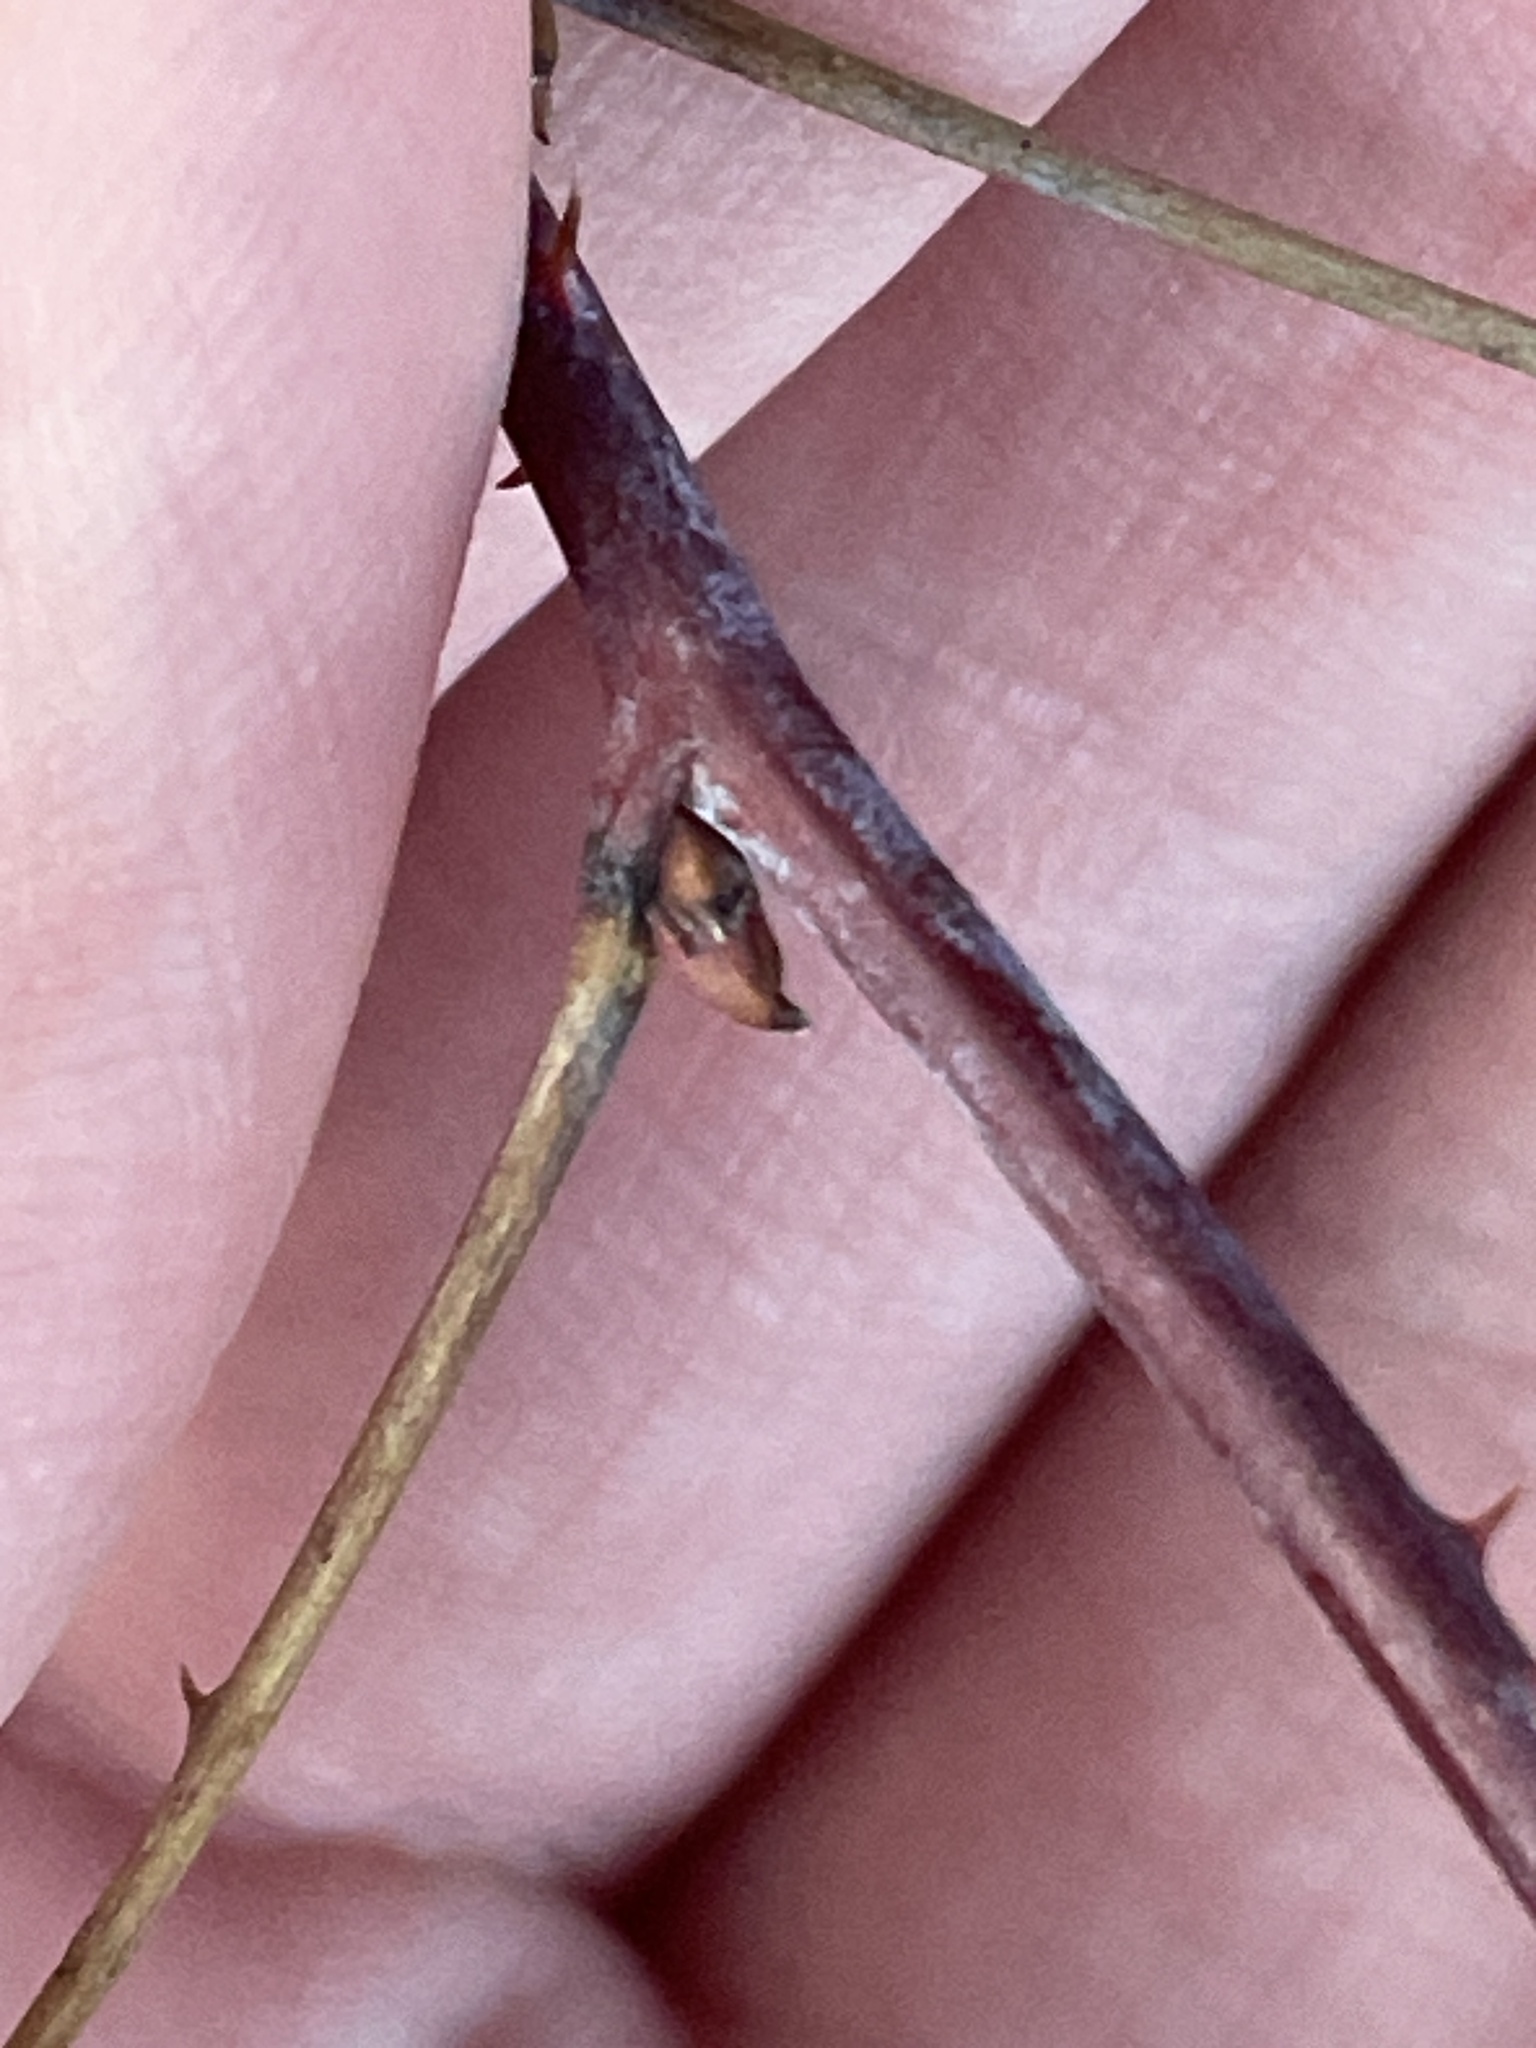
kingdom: Plantae
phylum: Tracheophyta
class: Magnoliopsida
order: Rosales
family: Rosaceae
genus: Rubus
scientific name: Rubus occidentalis
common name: Black raspberry
